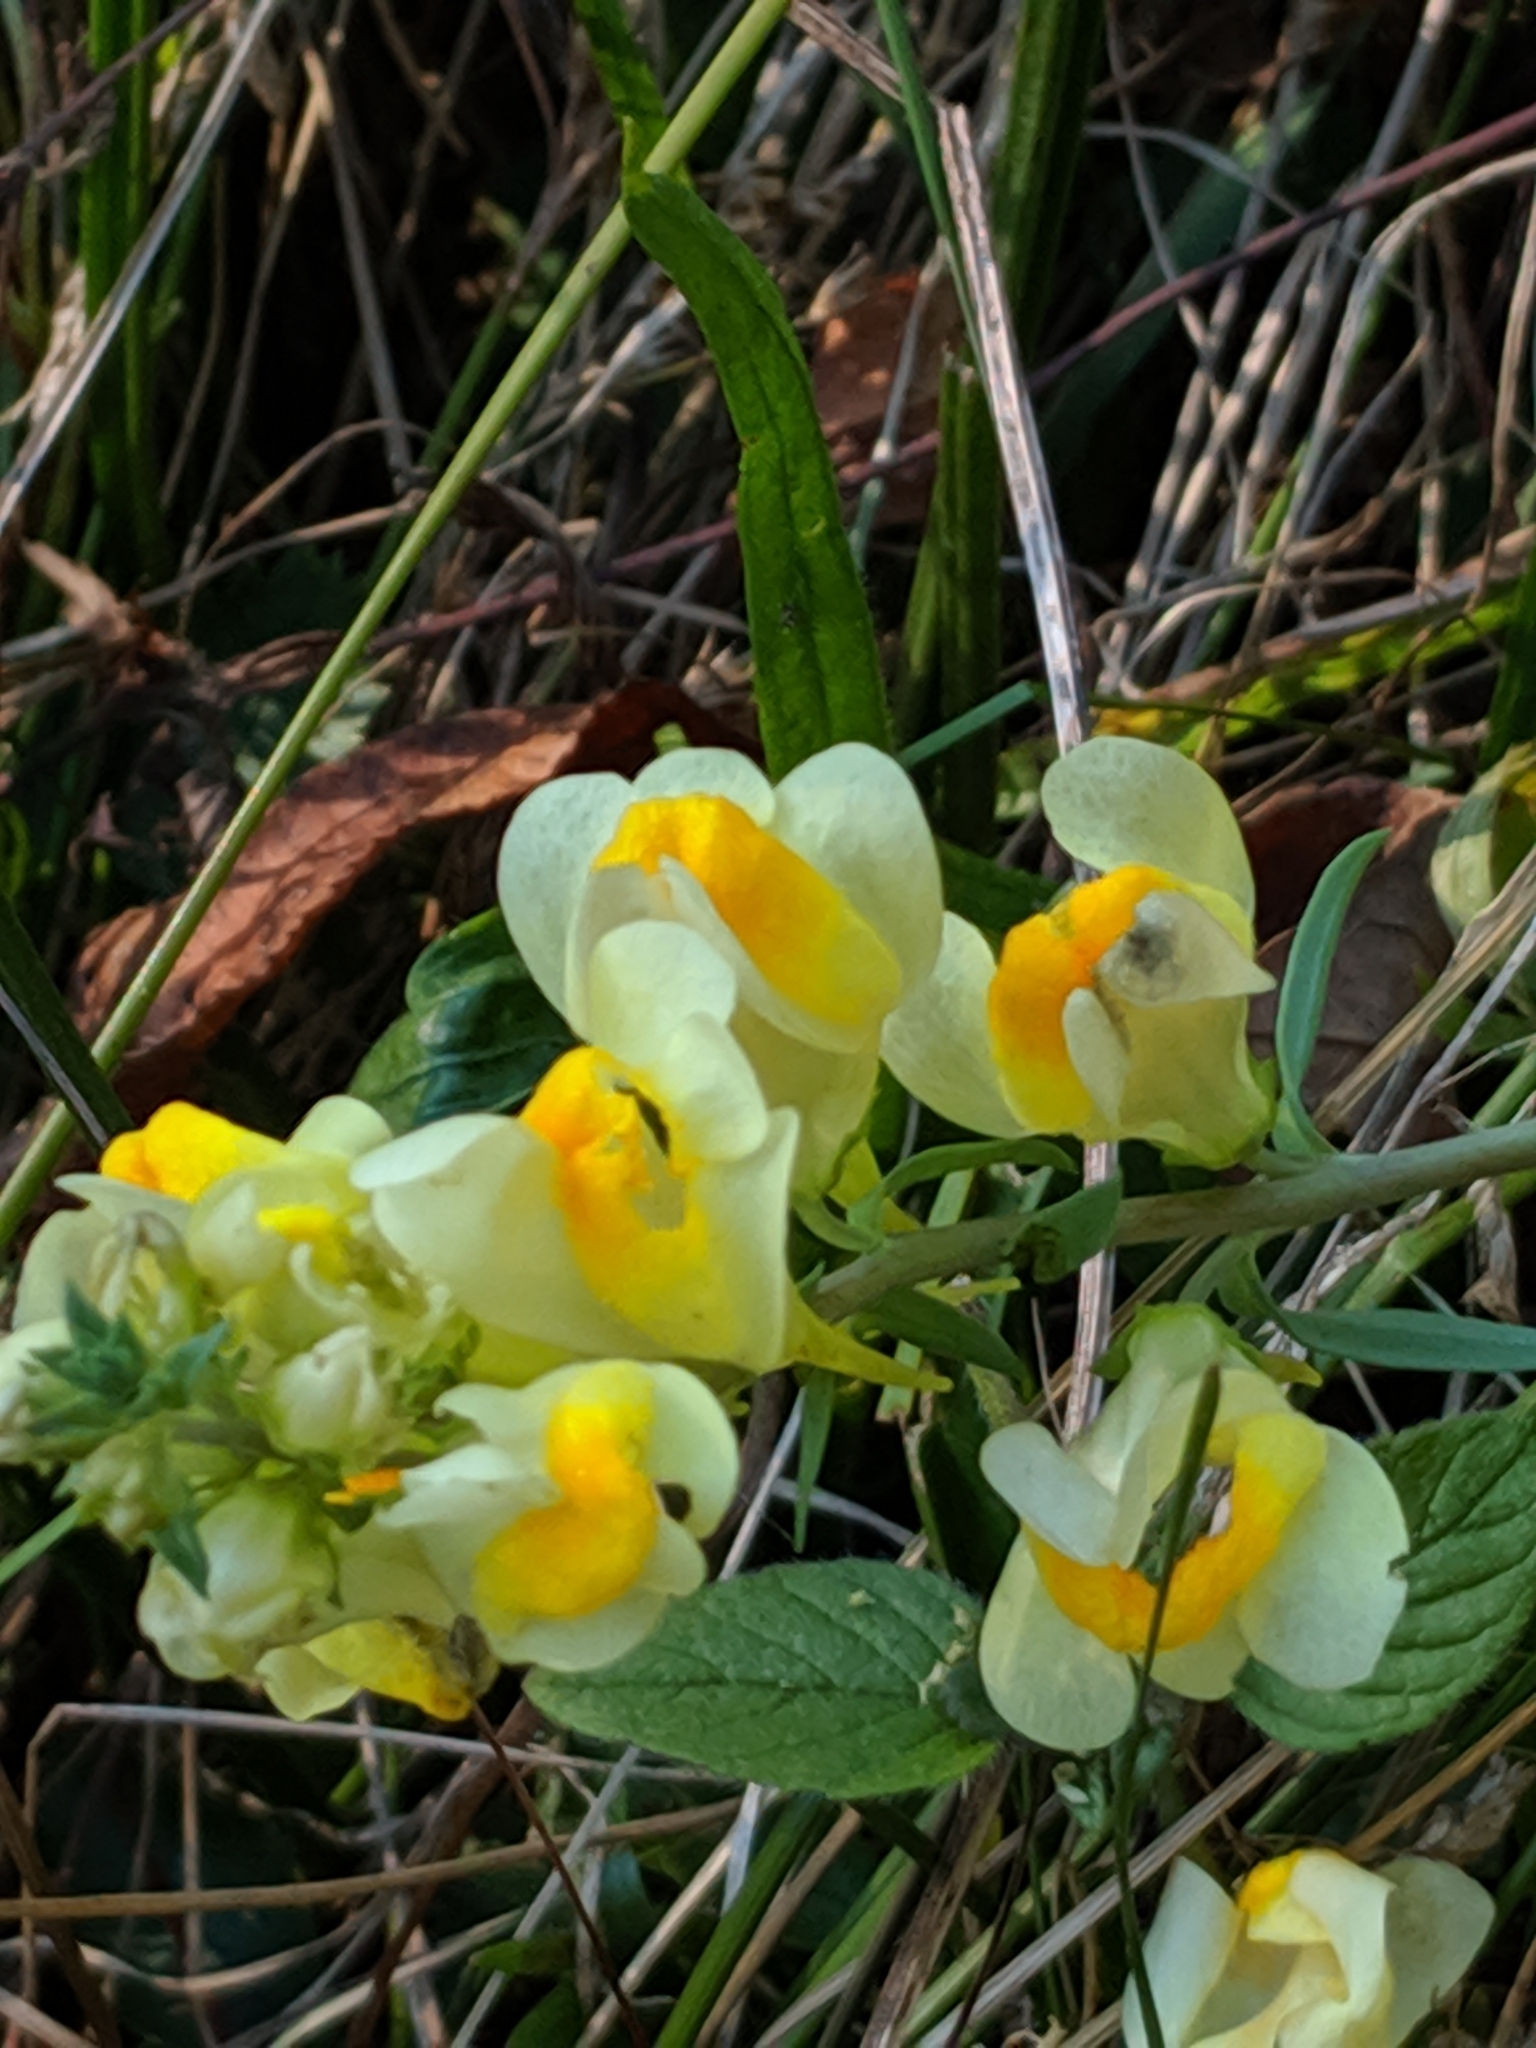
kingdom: Plantae
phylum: Tracheophyta
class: Magnoliopsida
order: Lamiales
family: Plantaginaceae
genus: Linaria
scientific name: Linaria vulgaris
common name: Butter and eggs
